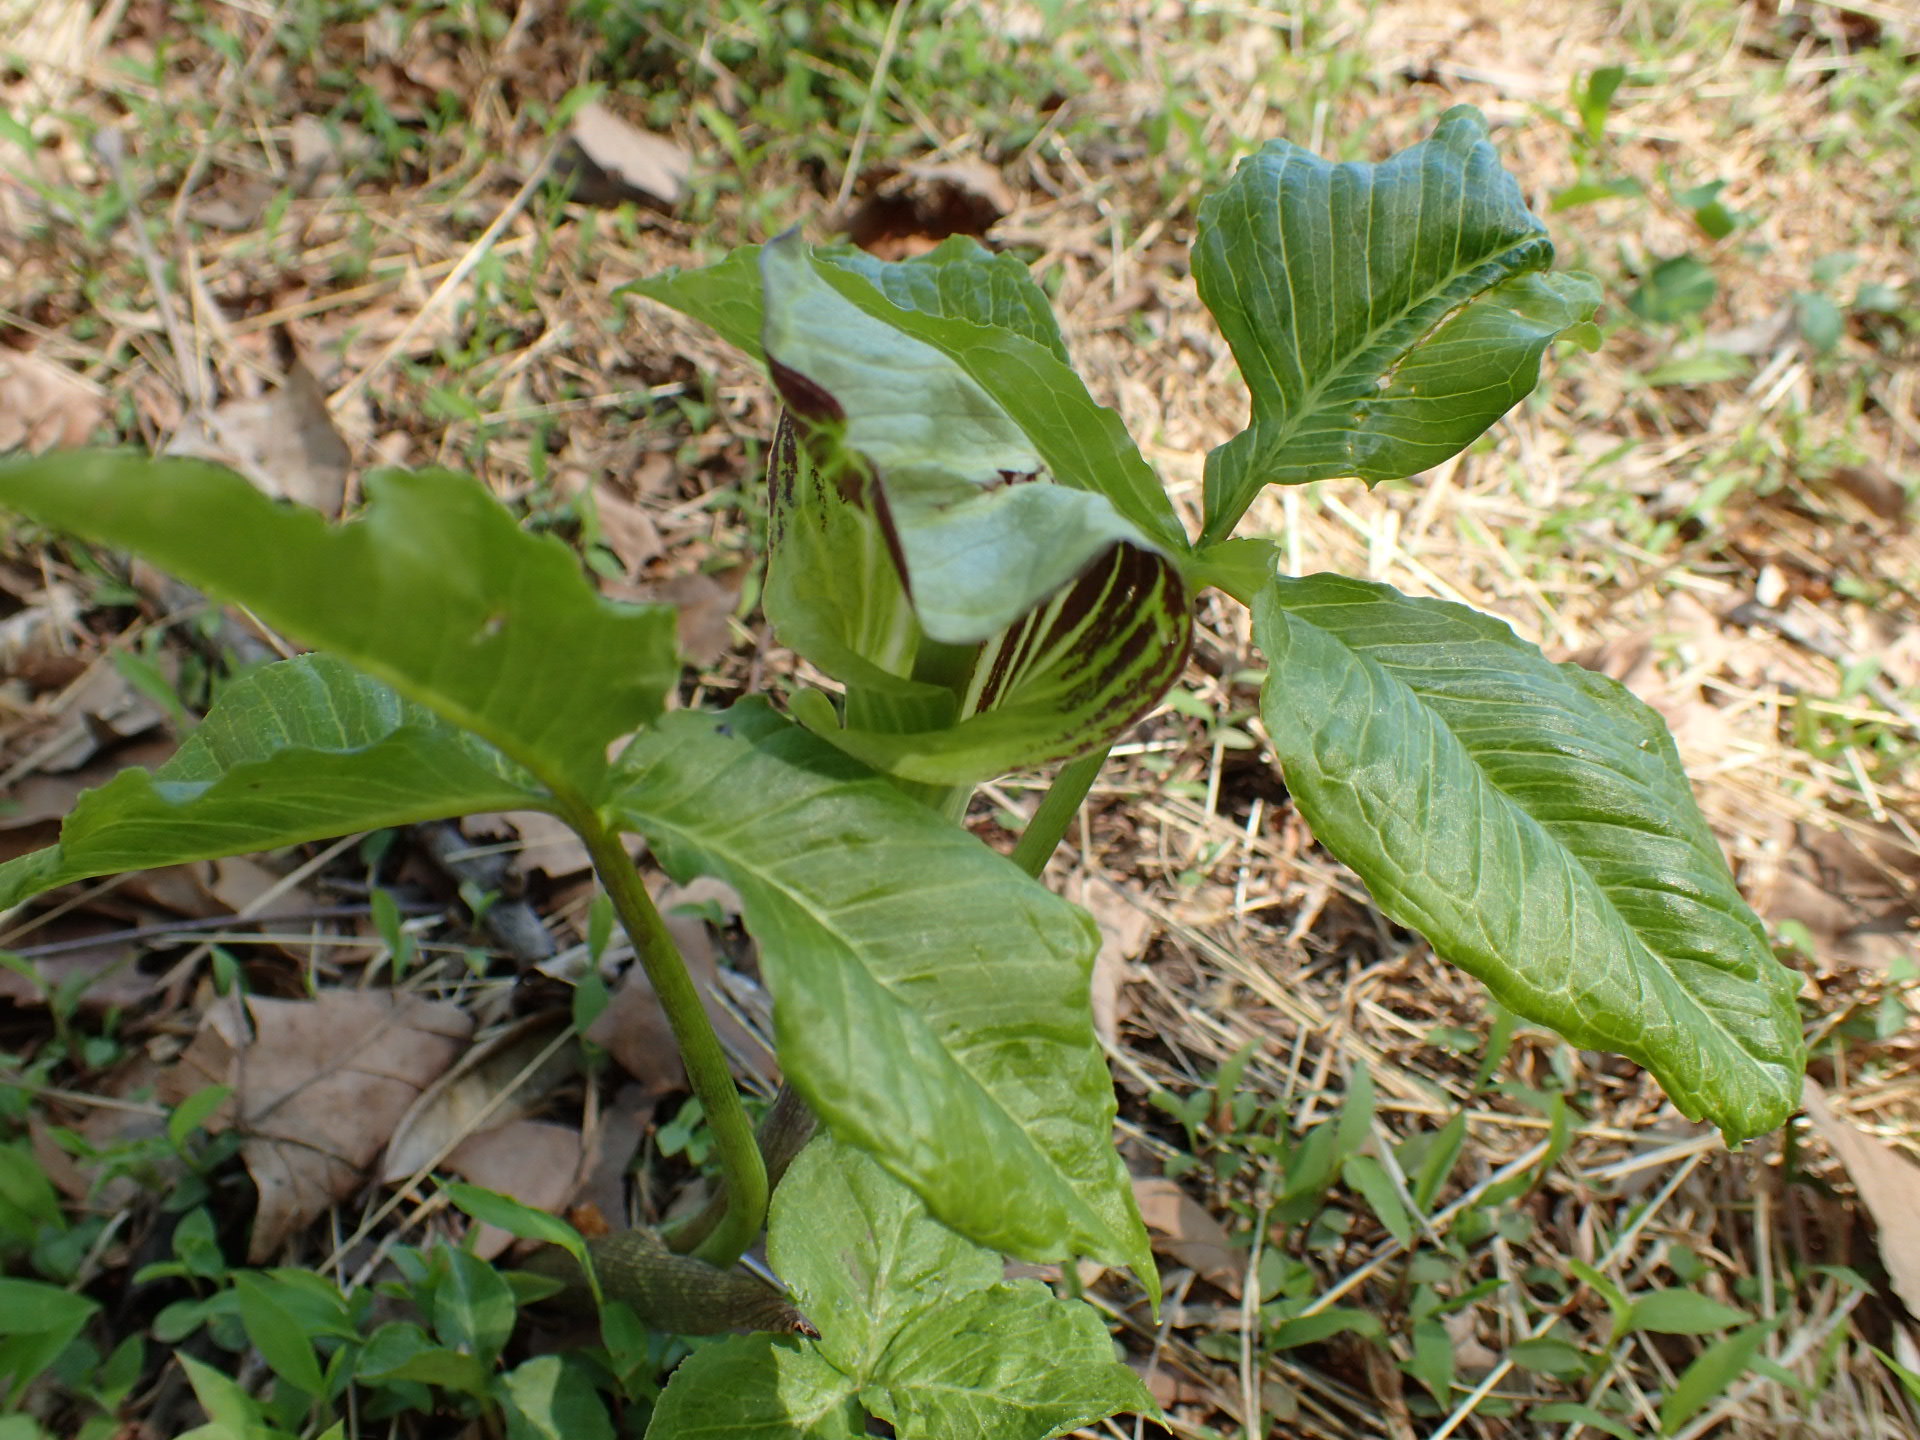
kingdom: Plantae
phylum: Tracheophyta
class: Liliopsida
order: Alismatales
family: Araceae
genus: Arisaema
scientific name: Arisaema triphyllum
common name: Jack-in-the-pulpit
